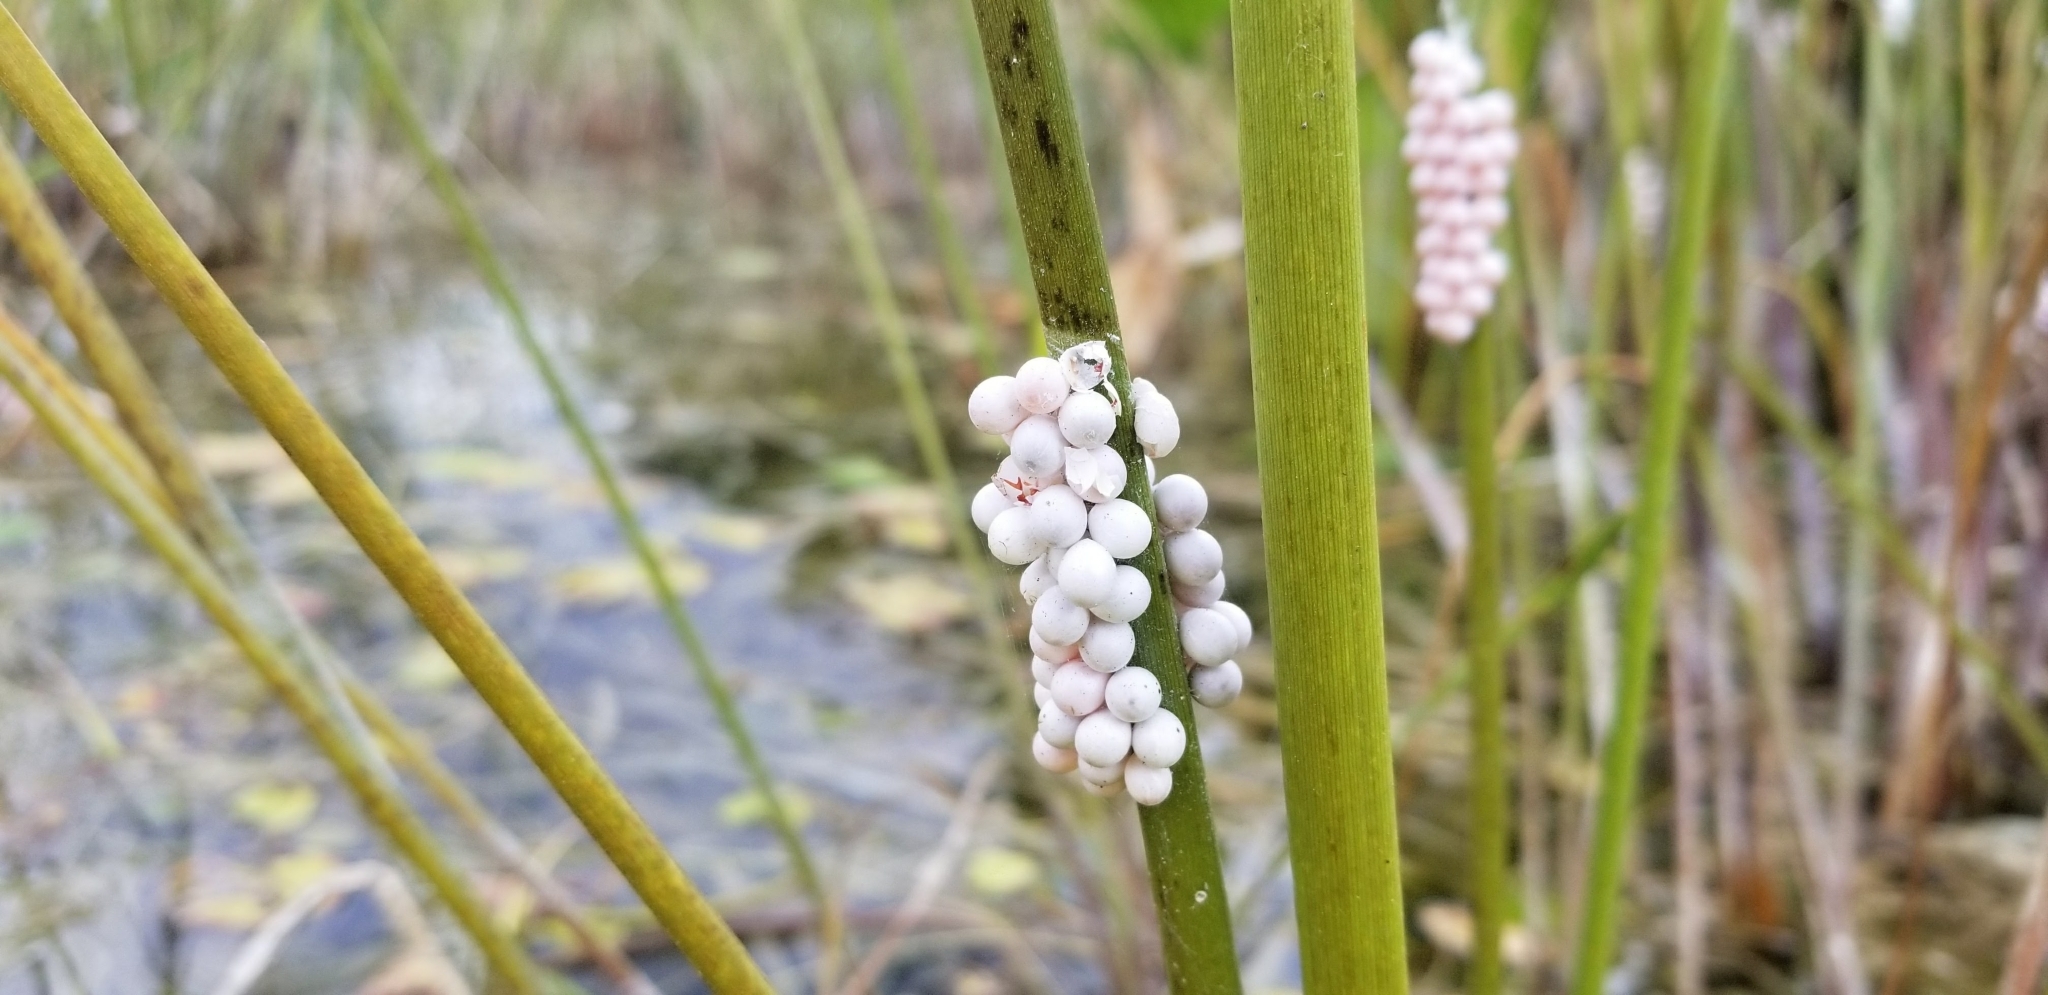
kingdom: Animalia
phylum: Mollusca
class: Gastropoda
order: Architaenioglossa
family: Ampullariidae
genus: Pomacea
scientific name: Pomacea paludosa
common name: Florida applesnail
